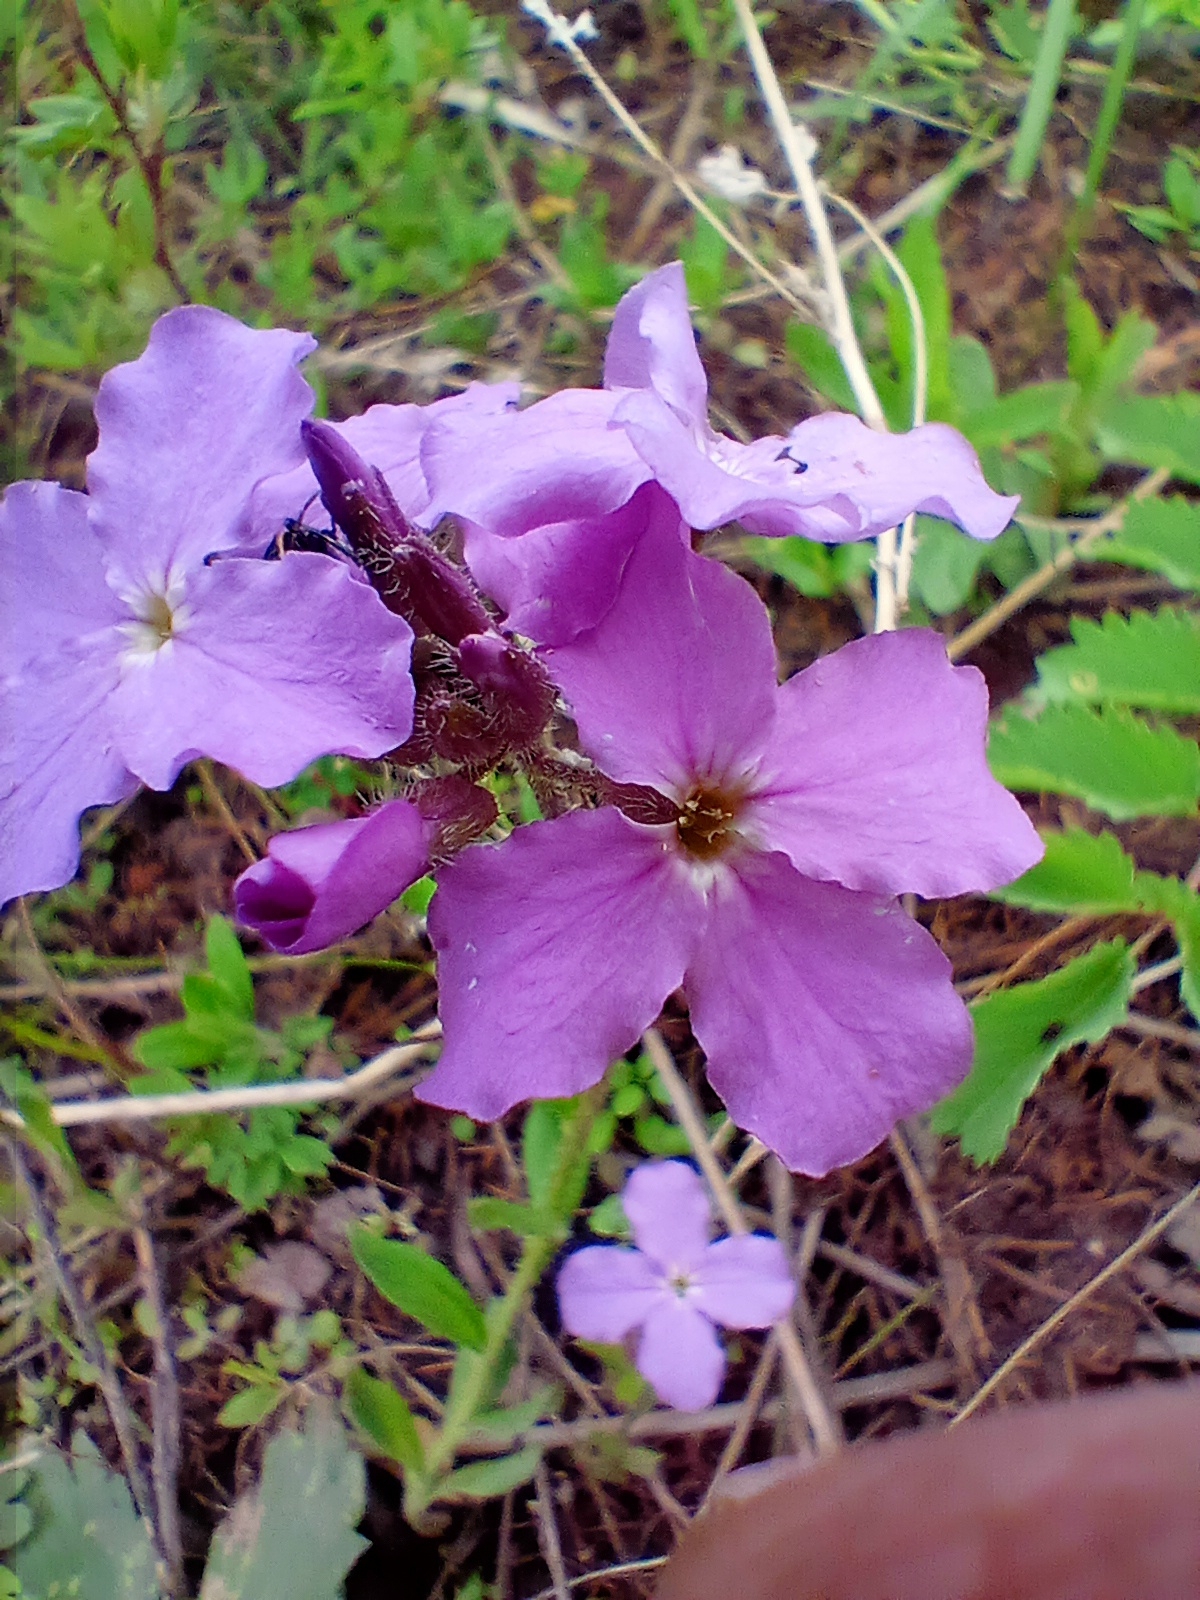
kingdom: Plantae
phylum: Tracheophyta
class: Magnoliopsida
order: Brassicales
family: Brassicaceae
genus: Clausia
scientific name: Clausia aprica
